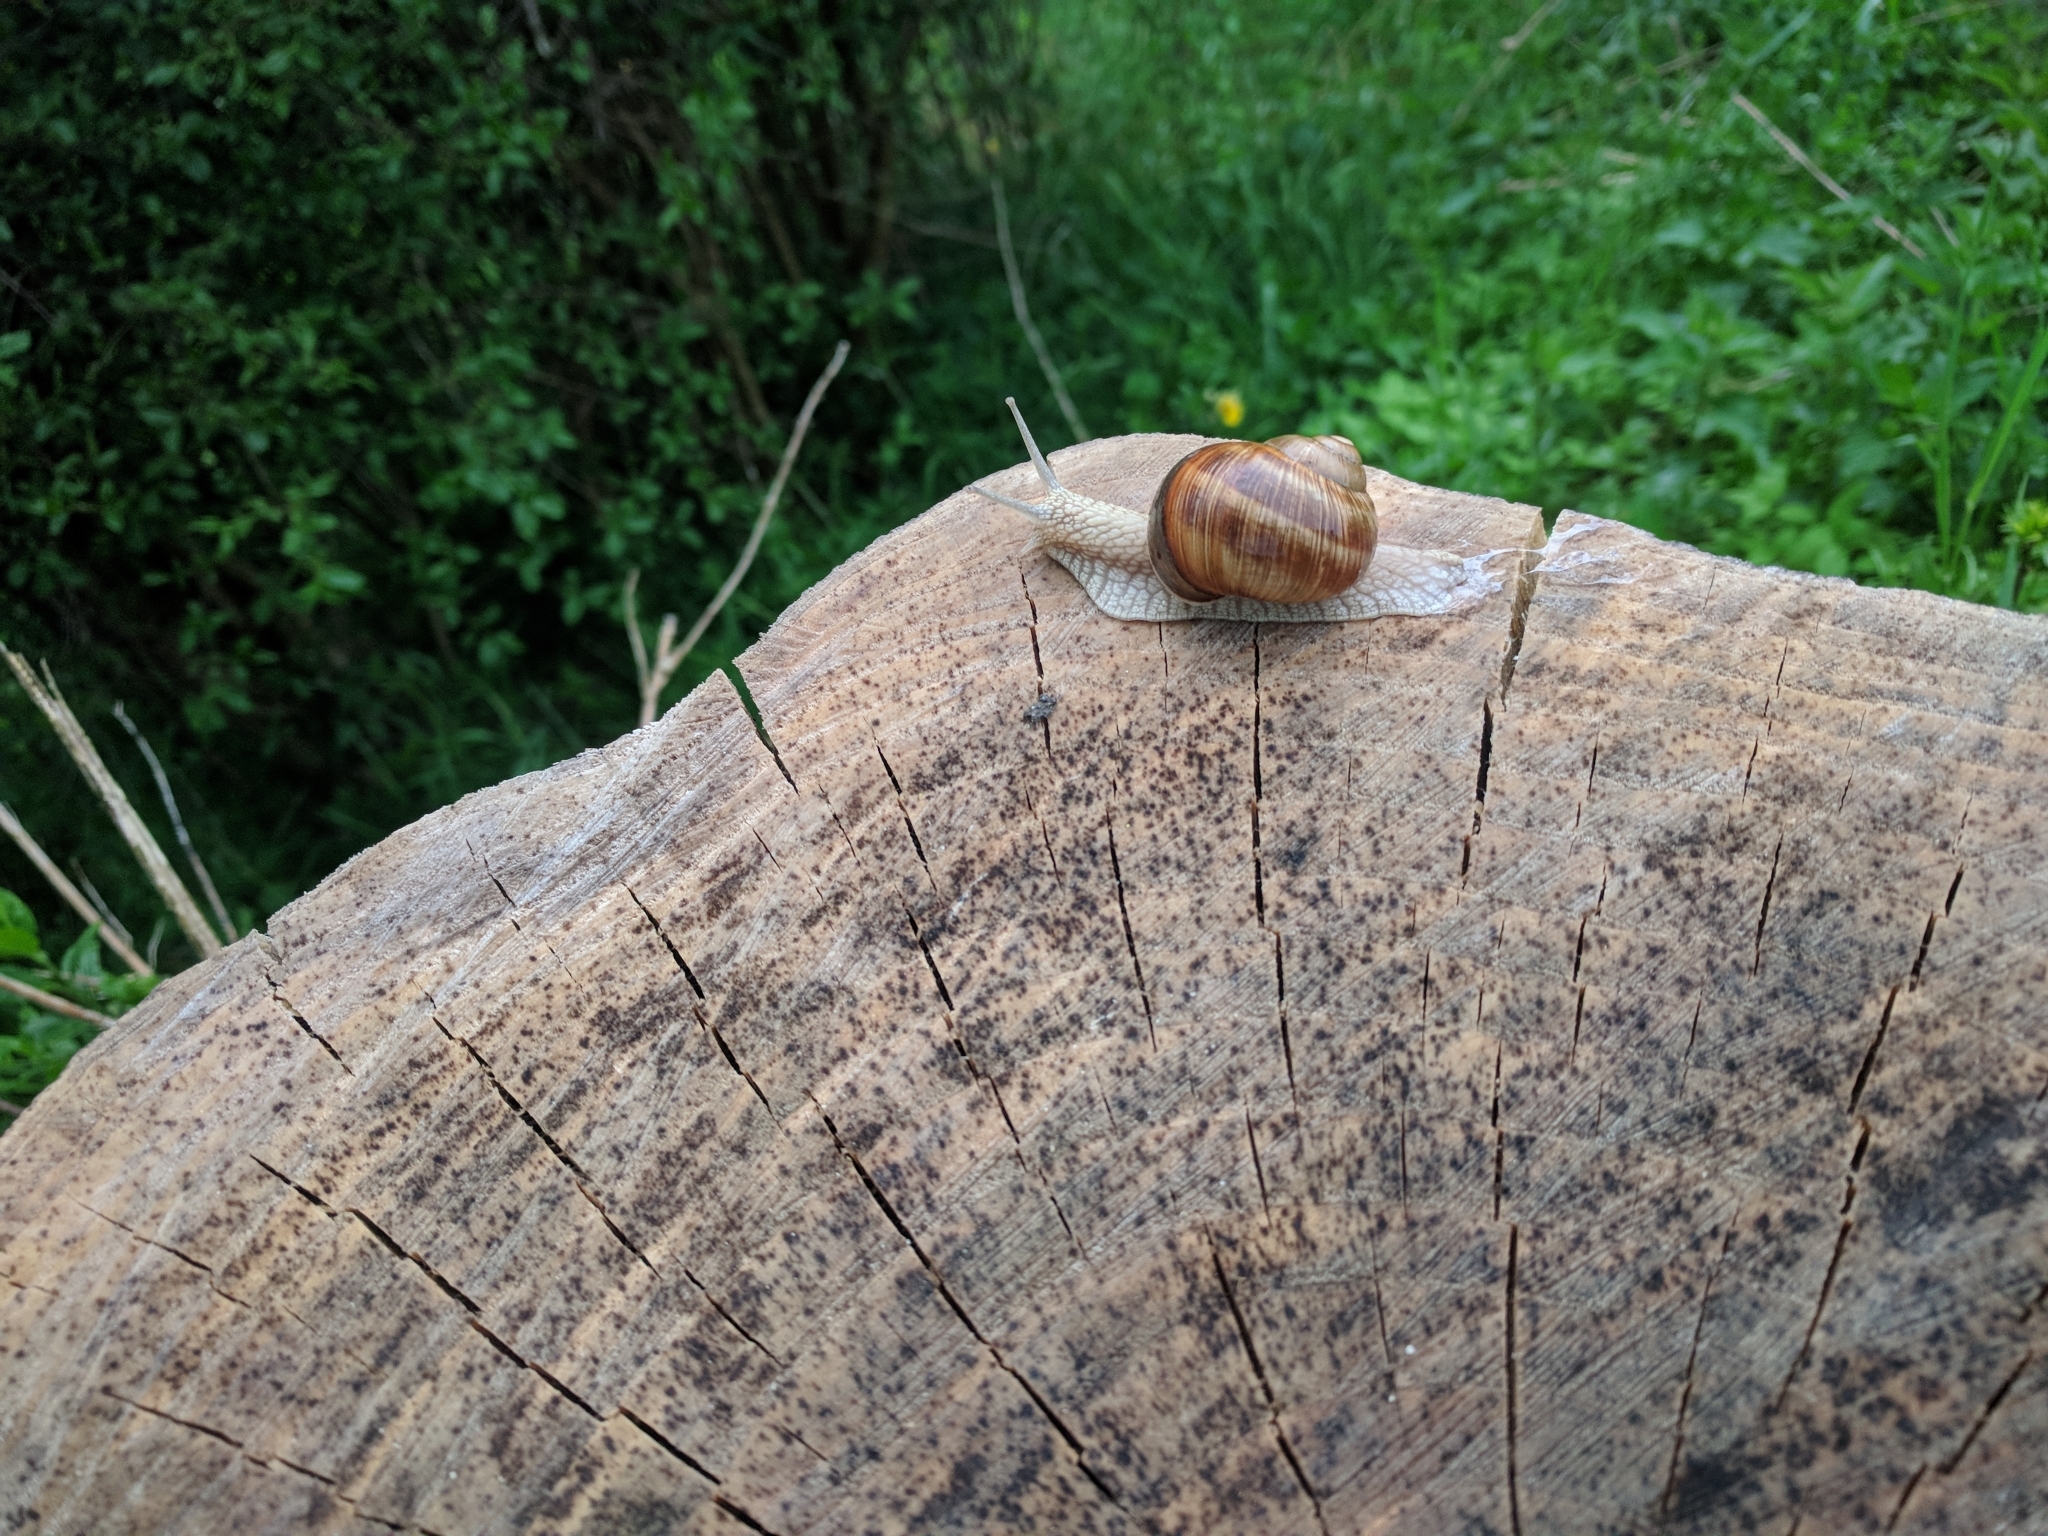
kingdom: Animalia
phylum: Mollusca
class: Gastropoda
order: Stylommatophora
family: Helicidae
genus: Helix
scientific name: Helix pomatia
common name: Roman snail
